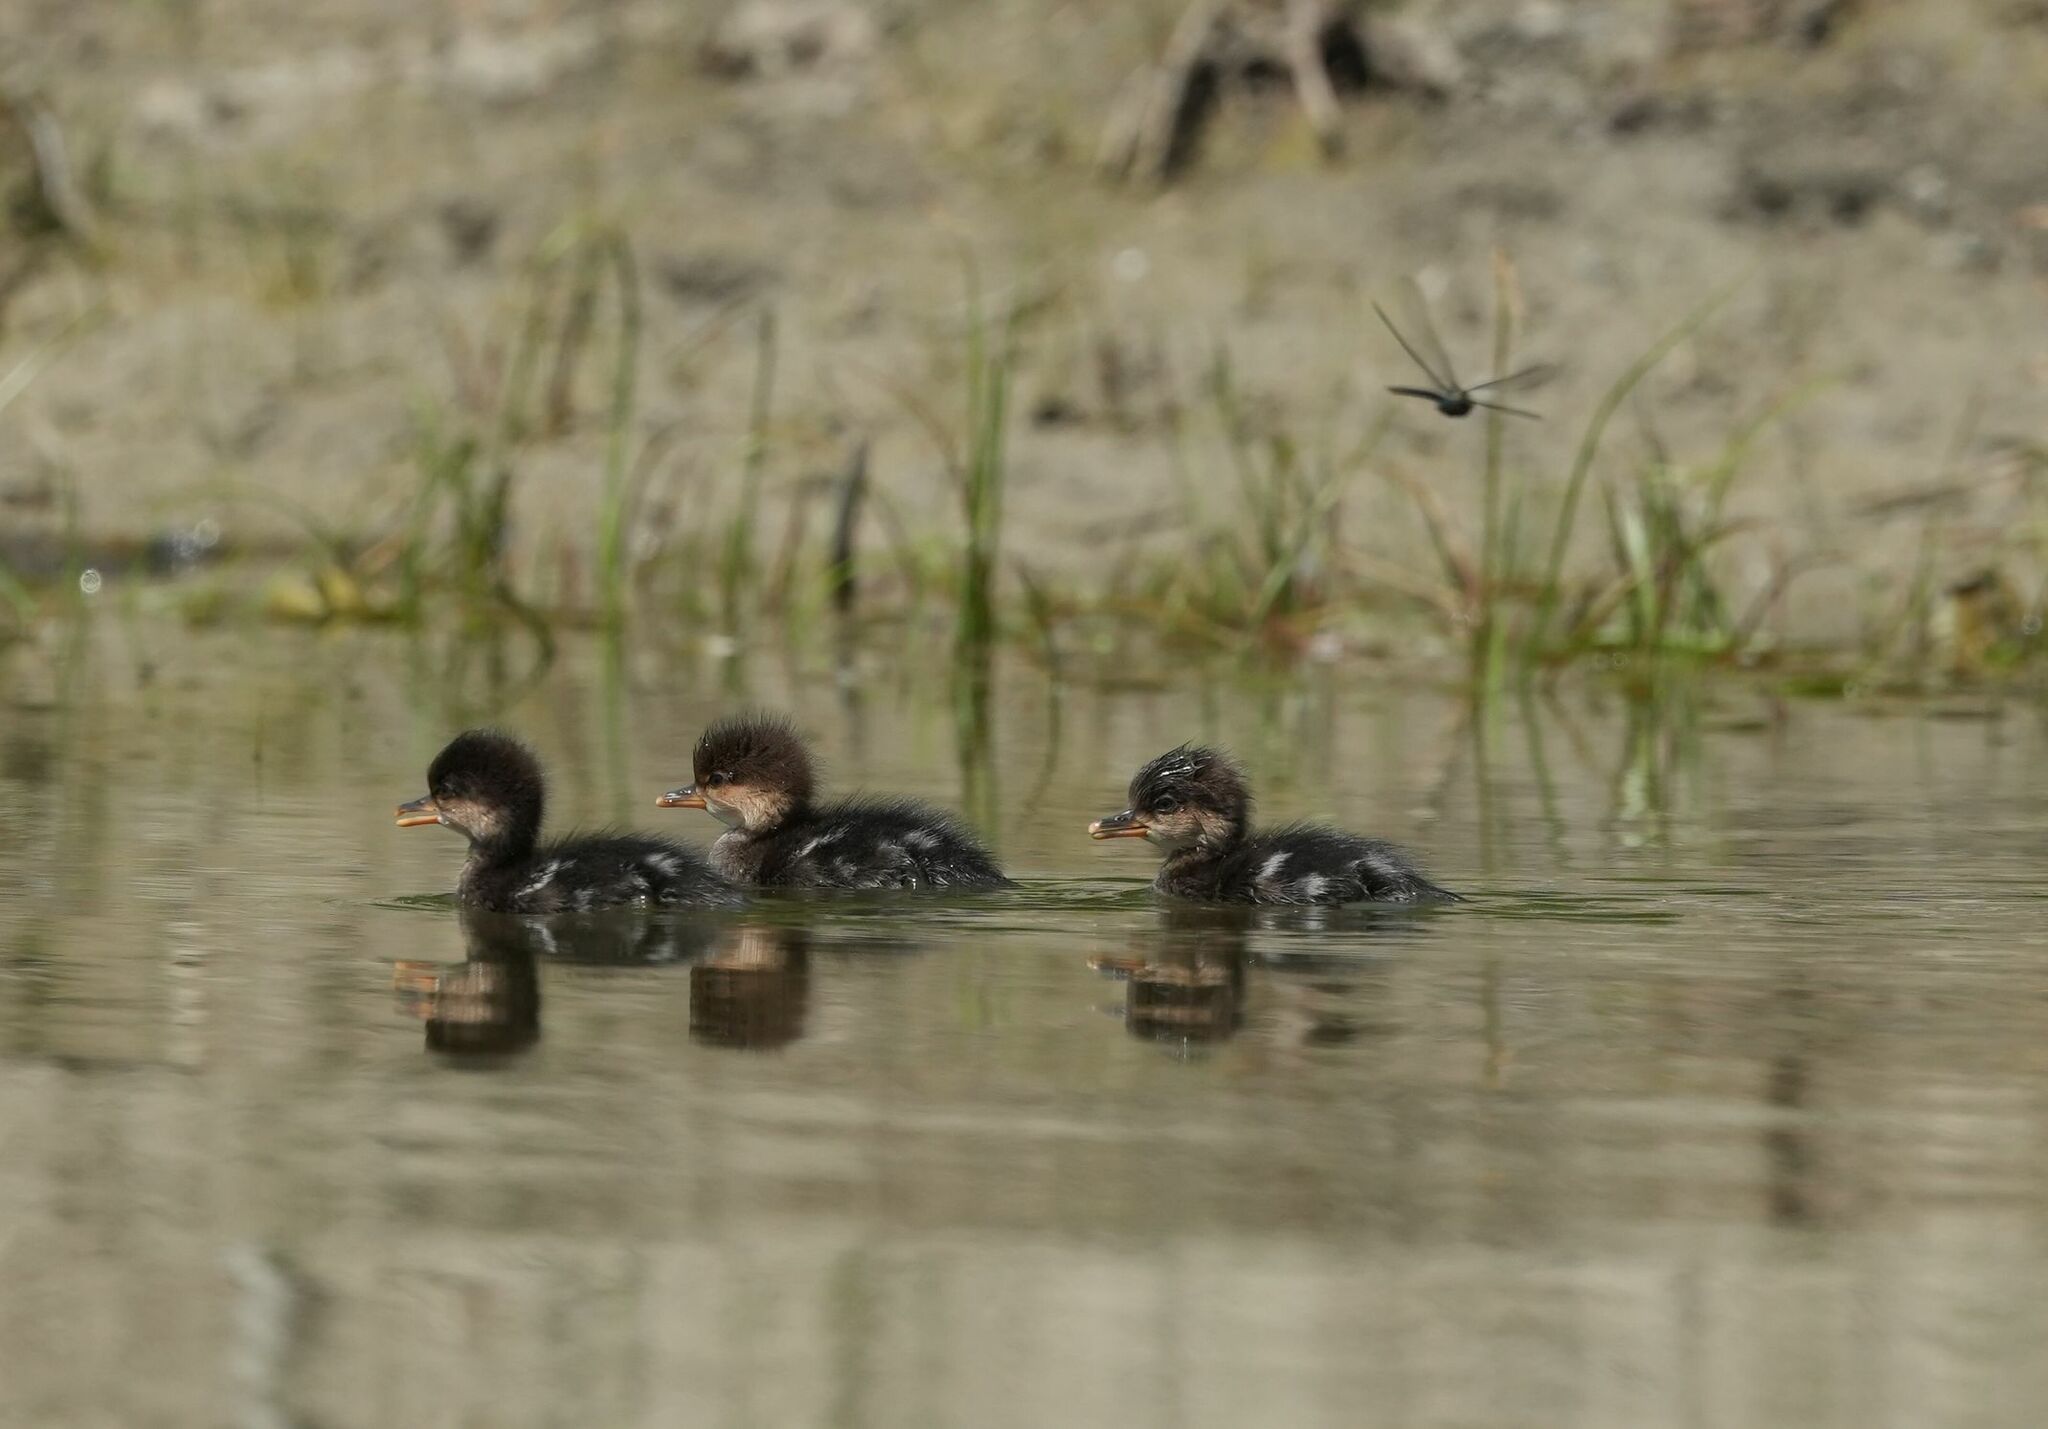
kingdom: Animalia
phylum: Chordata
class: Aves
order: Anseriformes
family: Anatidae
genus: Lophodytes
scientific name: Lophodytes cucullatus
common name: Hooded merganser
